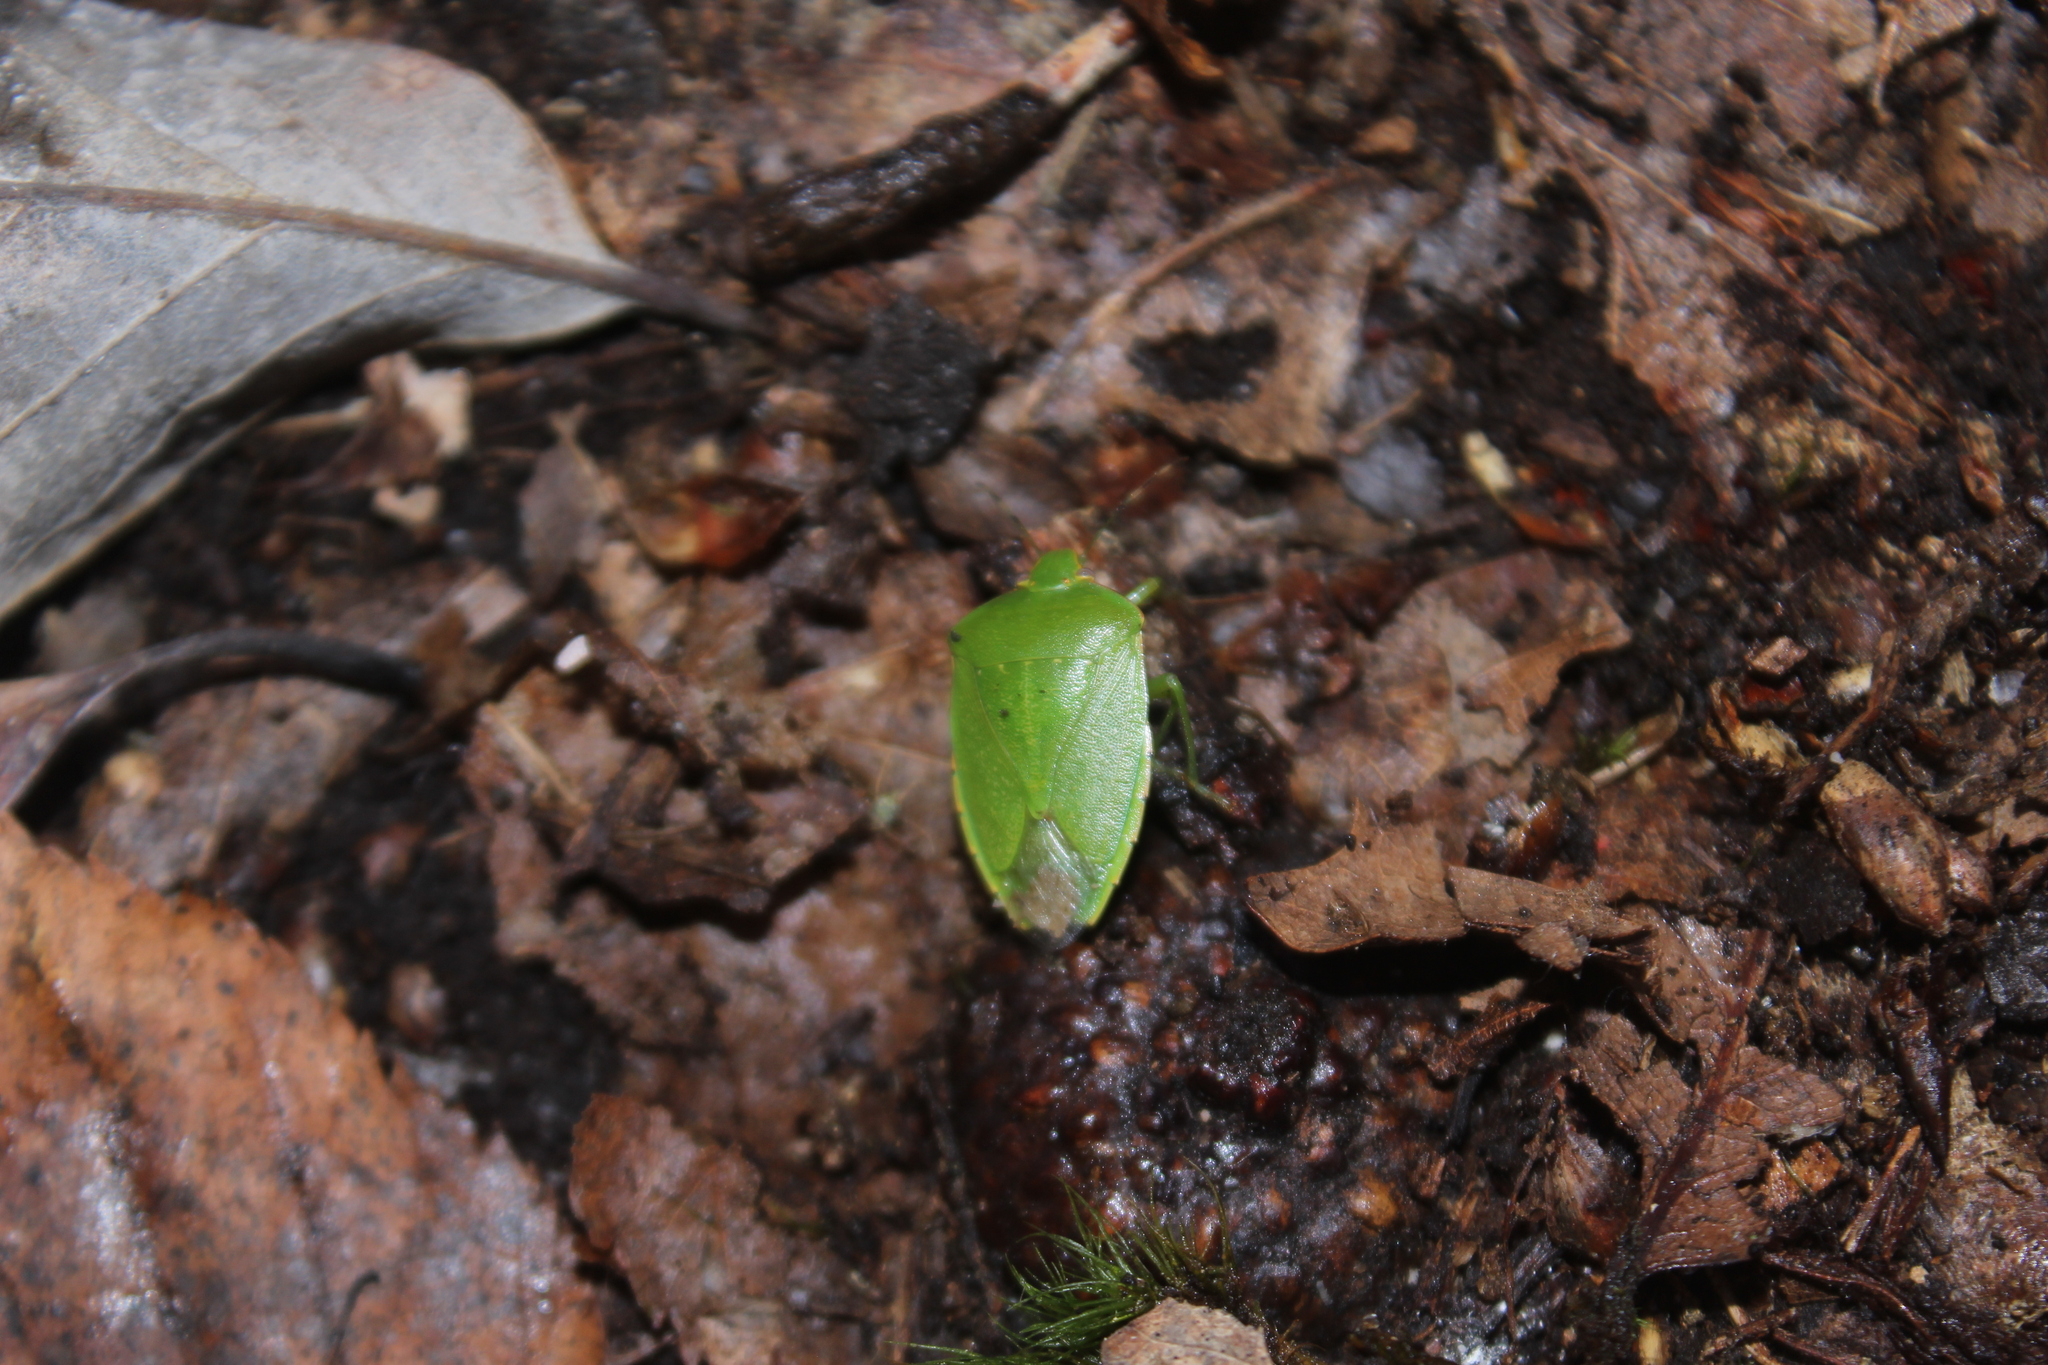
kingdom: Animalia
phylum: Arthropoda
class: Insecta
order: Hemiptera
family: Pentatomidae
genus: Chinavia
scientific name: Chinavia hilaris
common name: Green stink bug
